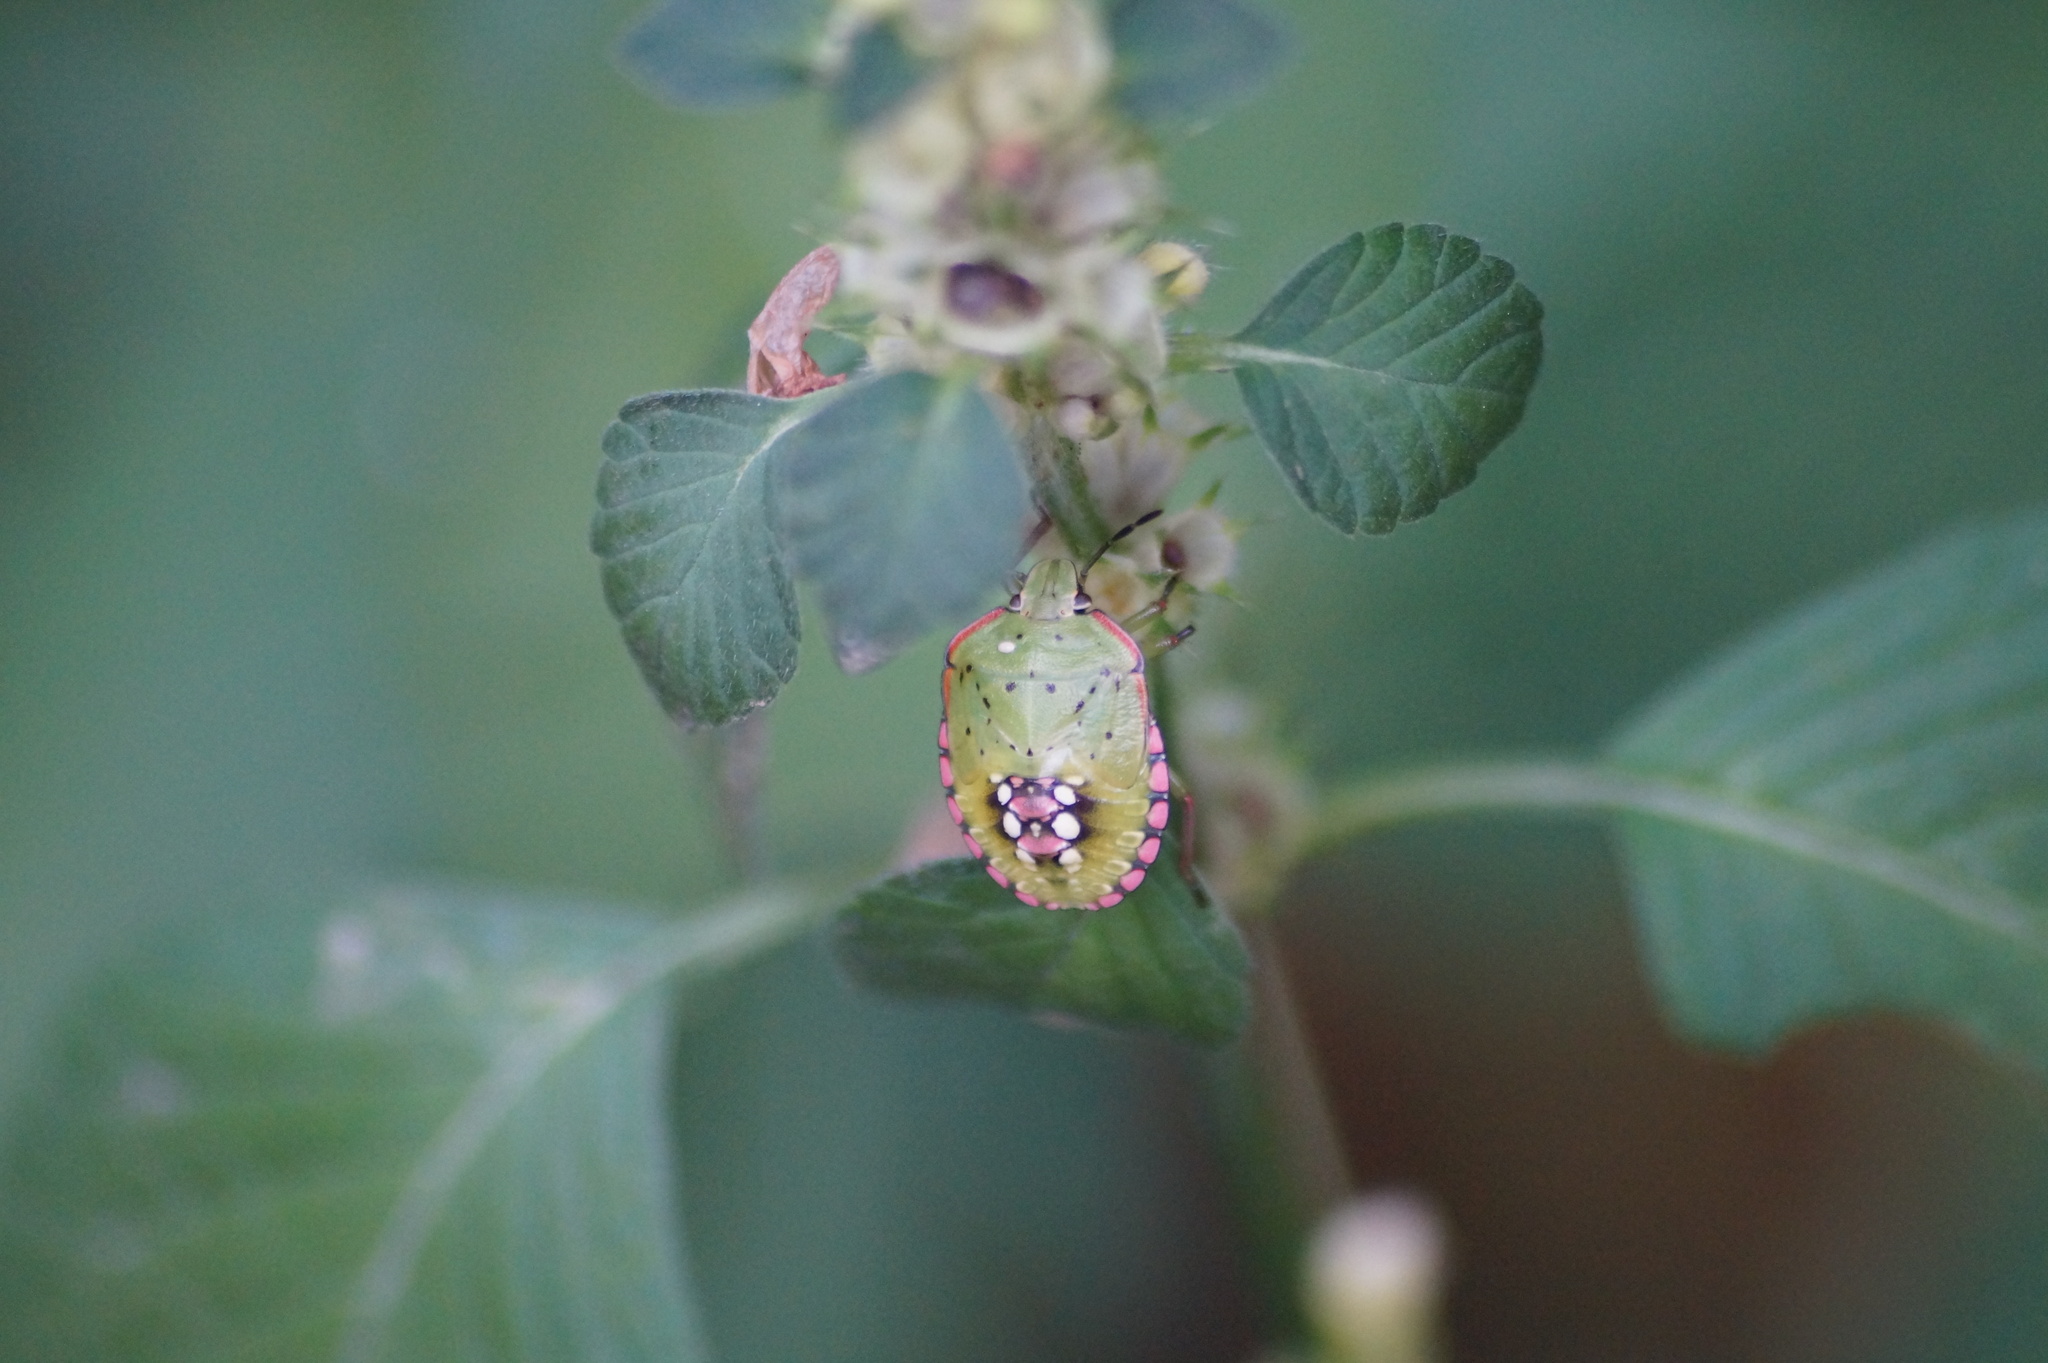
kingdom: Animalia
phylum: Arthropoda
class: Insecta
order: Hemiptera
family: Pentatomidae
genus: Nezara
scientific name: Nezara viridula
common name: Southern green stink bug
